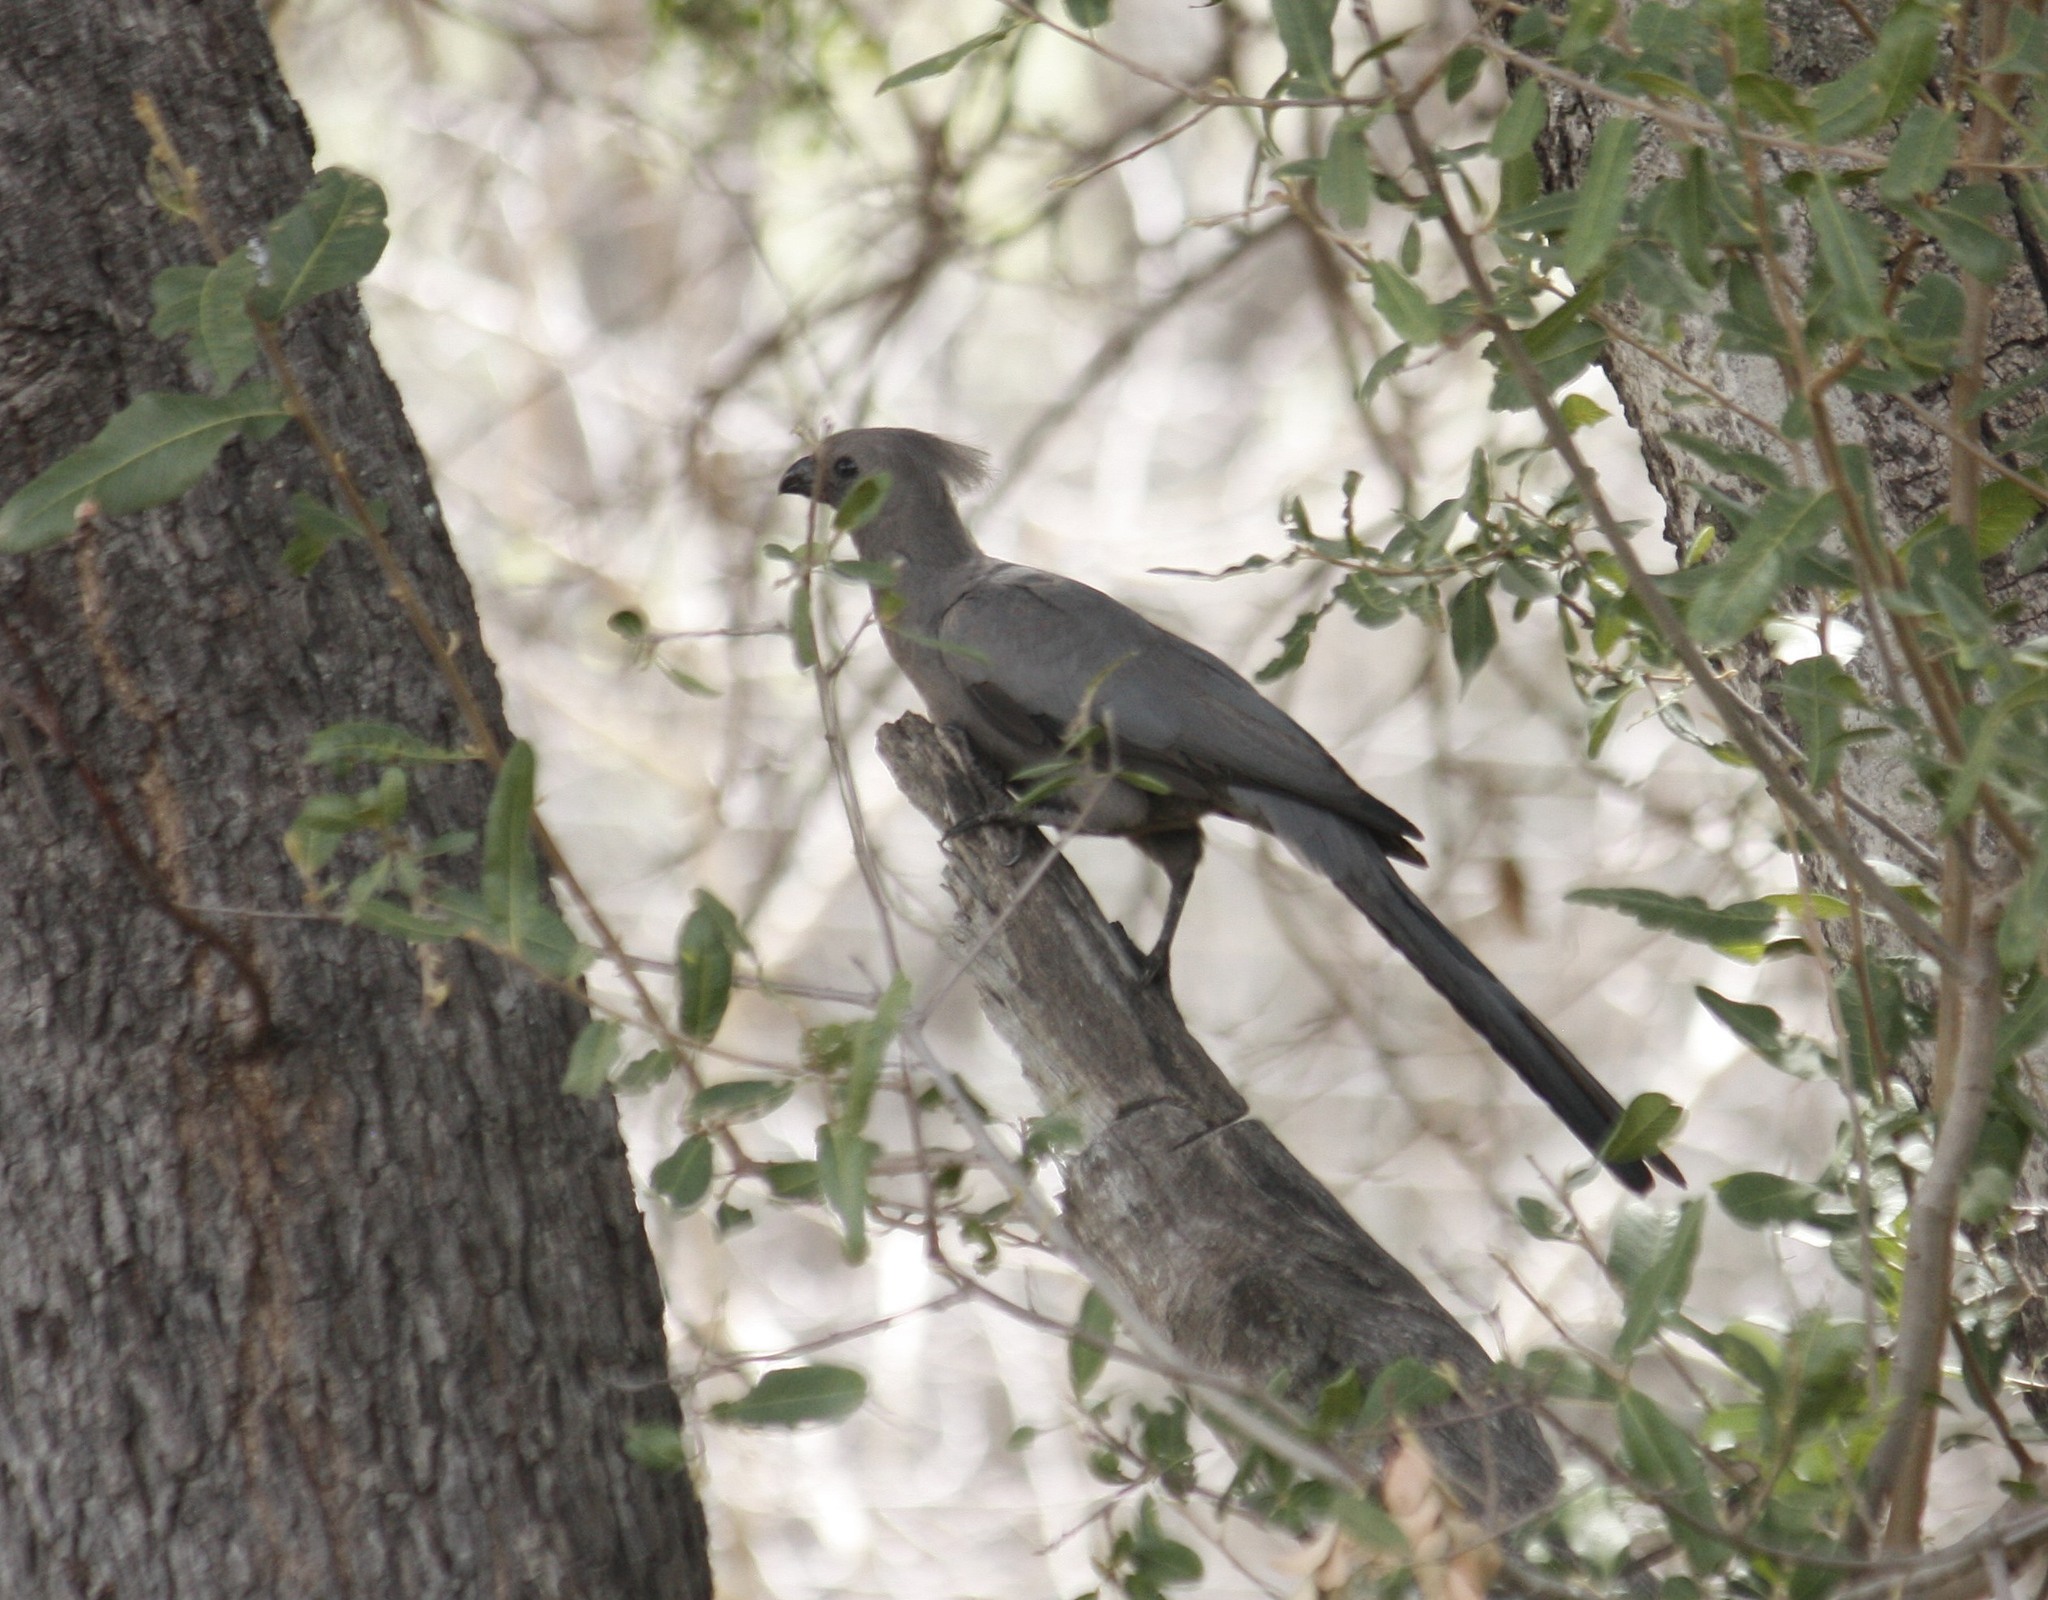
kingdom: Animalia
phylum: Chordata
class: Aves
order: Musophagiformes
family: Musophagidae
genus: Corythaixoides
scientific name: Corythaixoides concolor
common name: Grey go-away-bird
